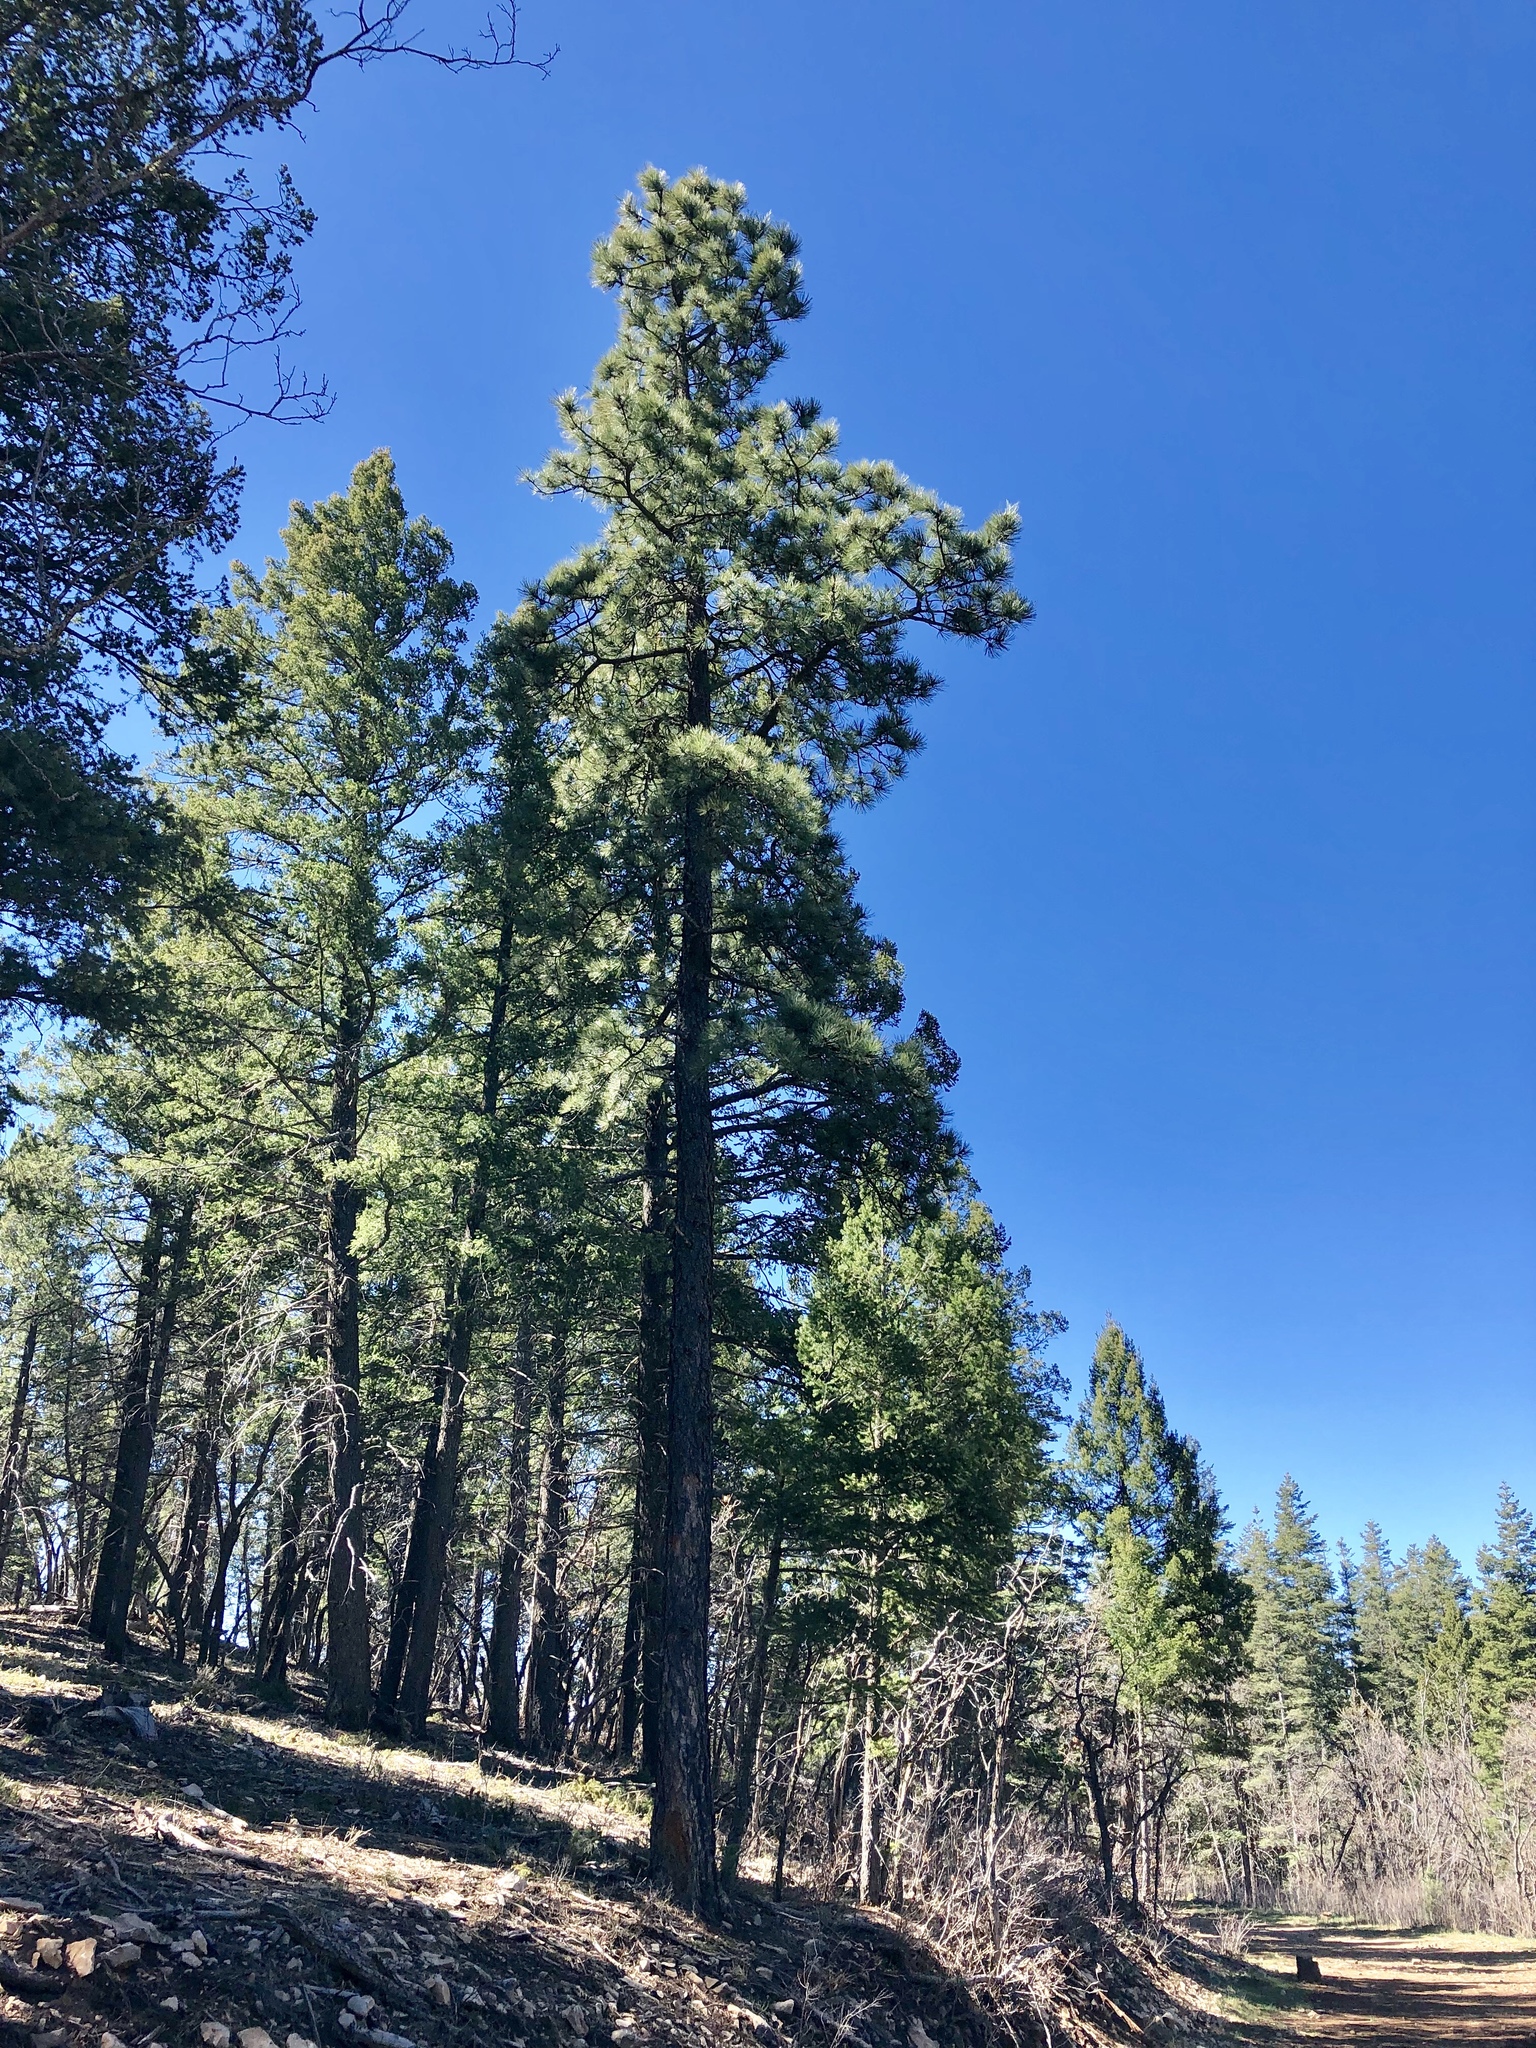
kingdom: Plantae
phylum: Tracheophyta
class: Pinopsida
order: Pinales
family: Pinaceae
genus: Pinus
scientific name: Pinus ponderosa
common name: Western yellow-pine
